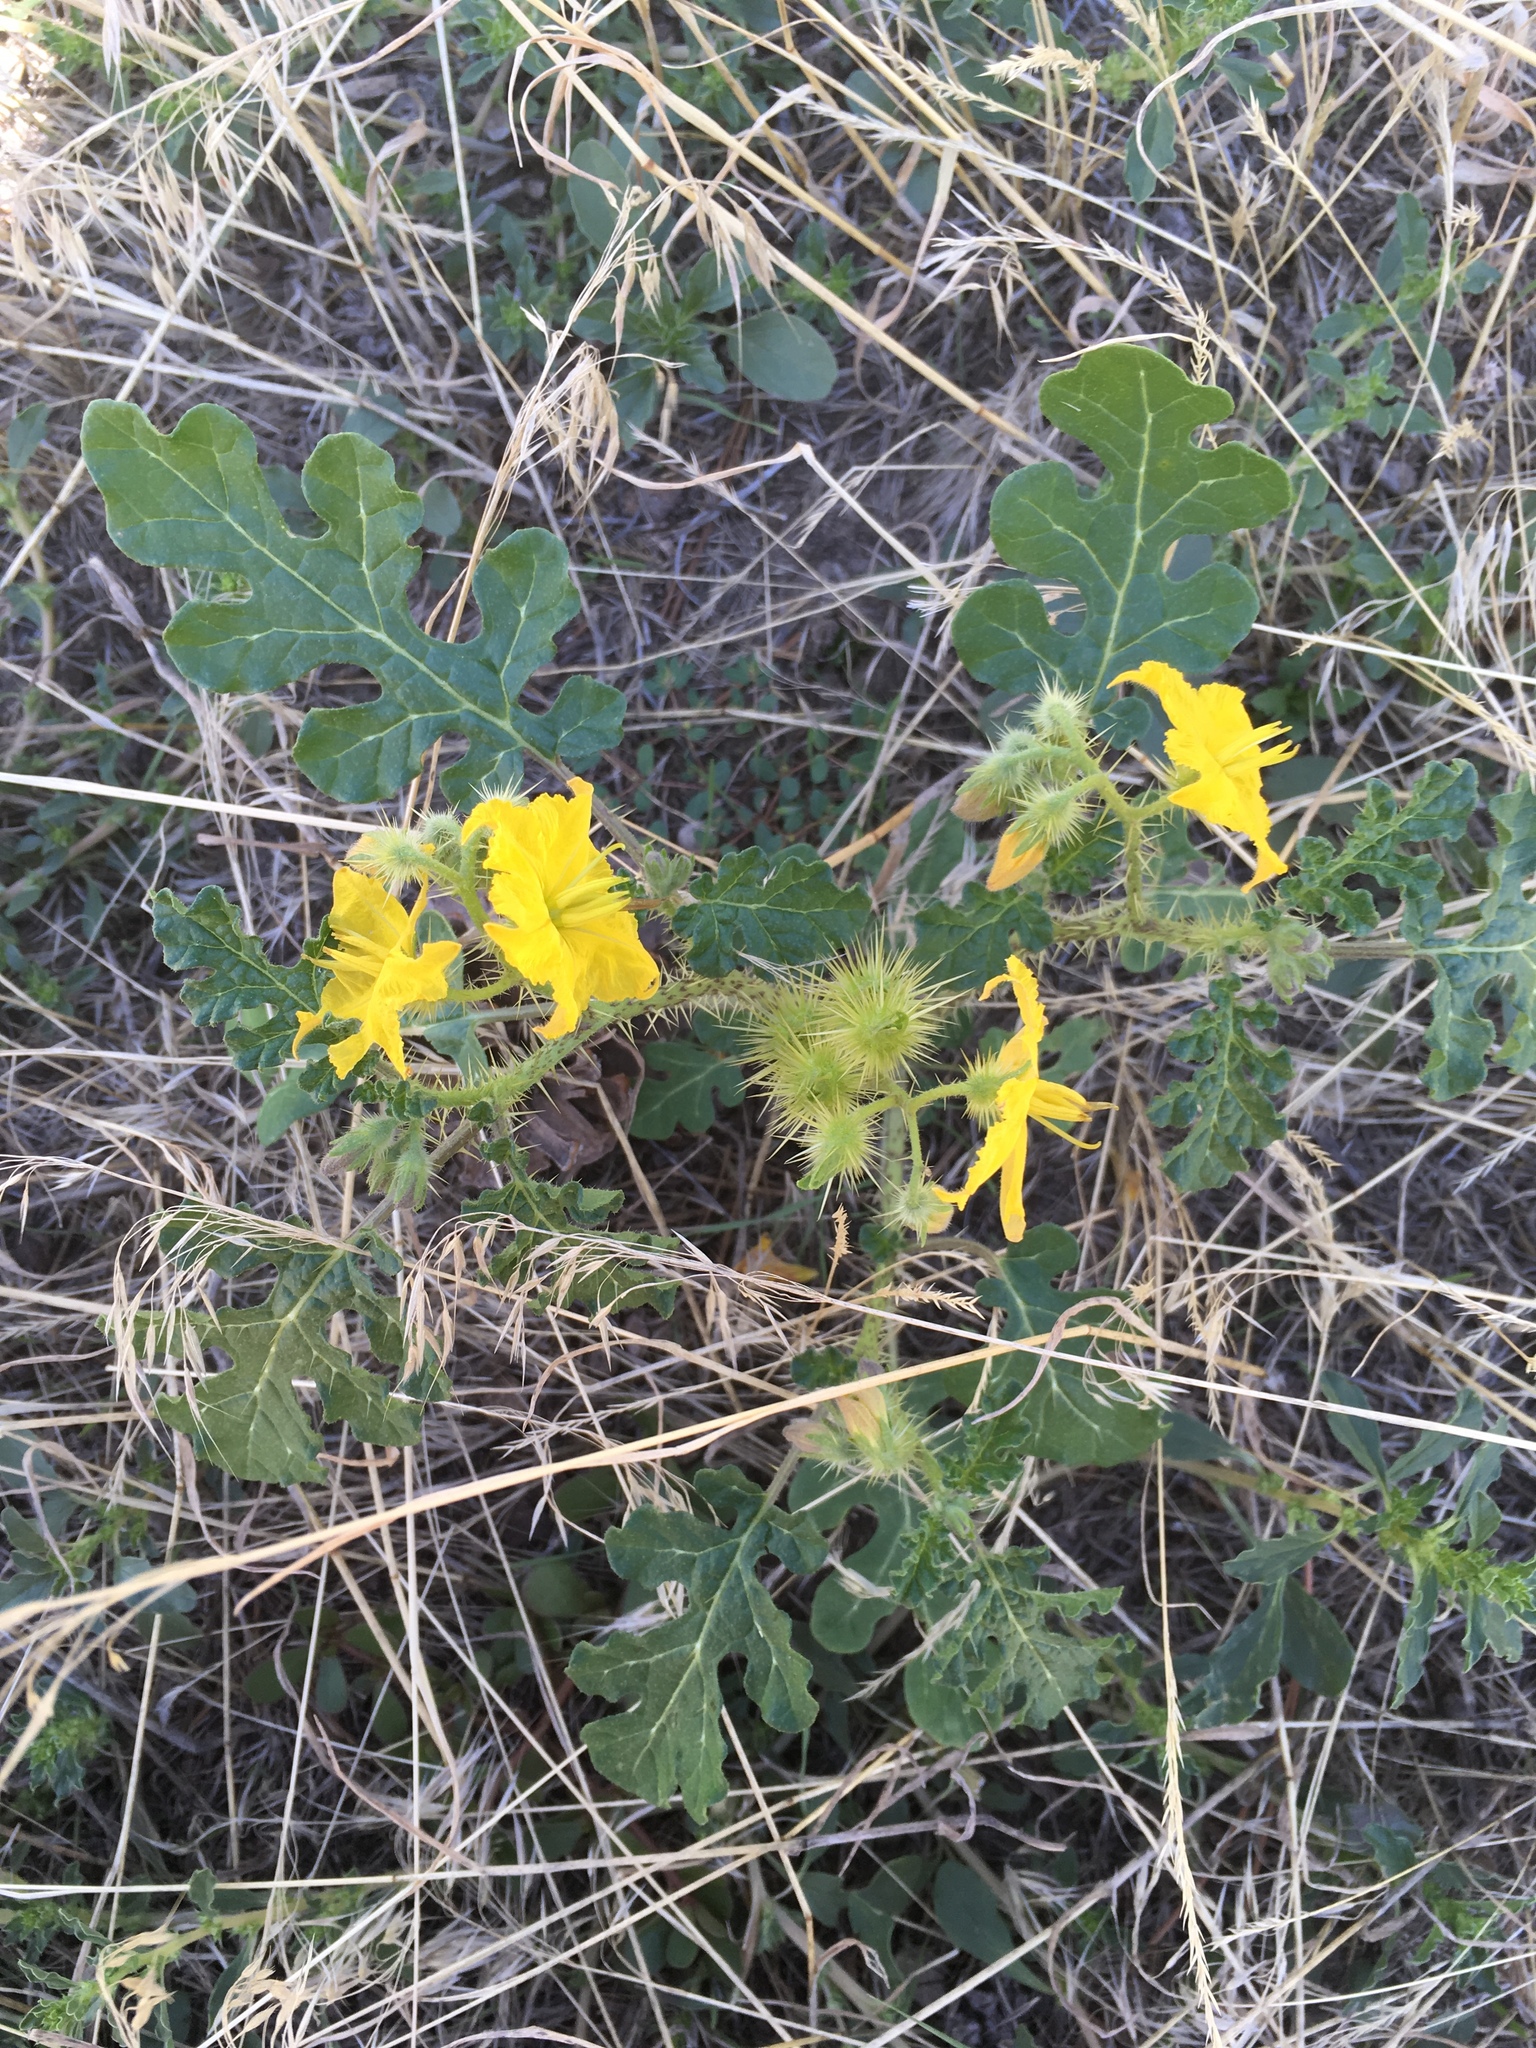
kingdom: Plantae
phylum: Tracheophyta
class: Magnoliopsida
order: Solanales
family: Solanaceae
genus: Solanum
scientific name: Solanum angustifolium
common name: Buffalobur nightshade
